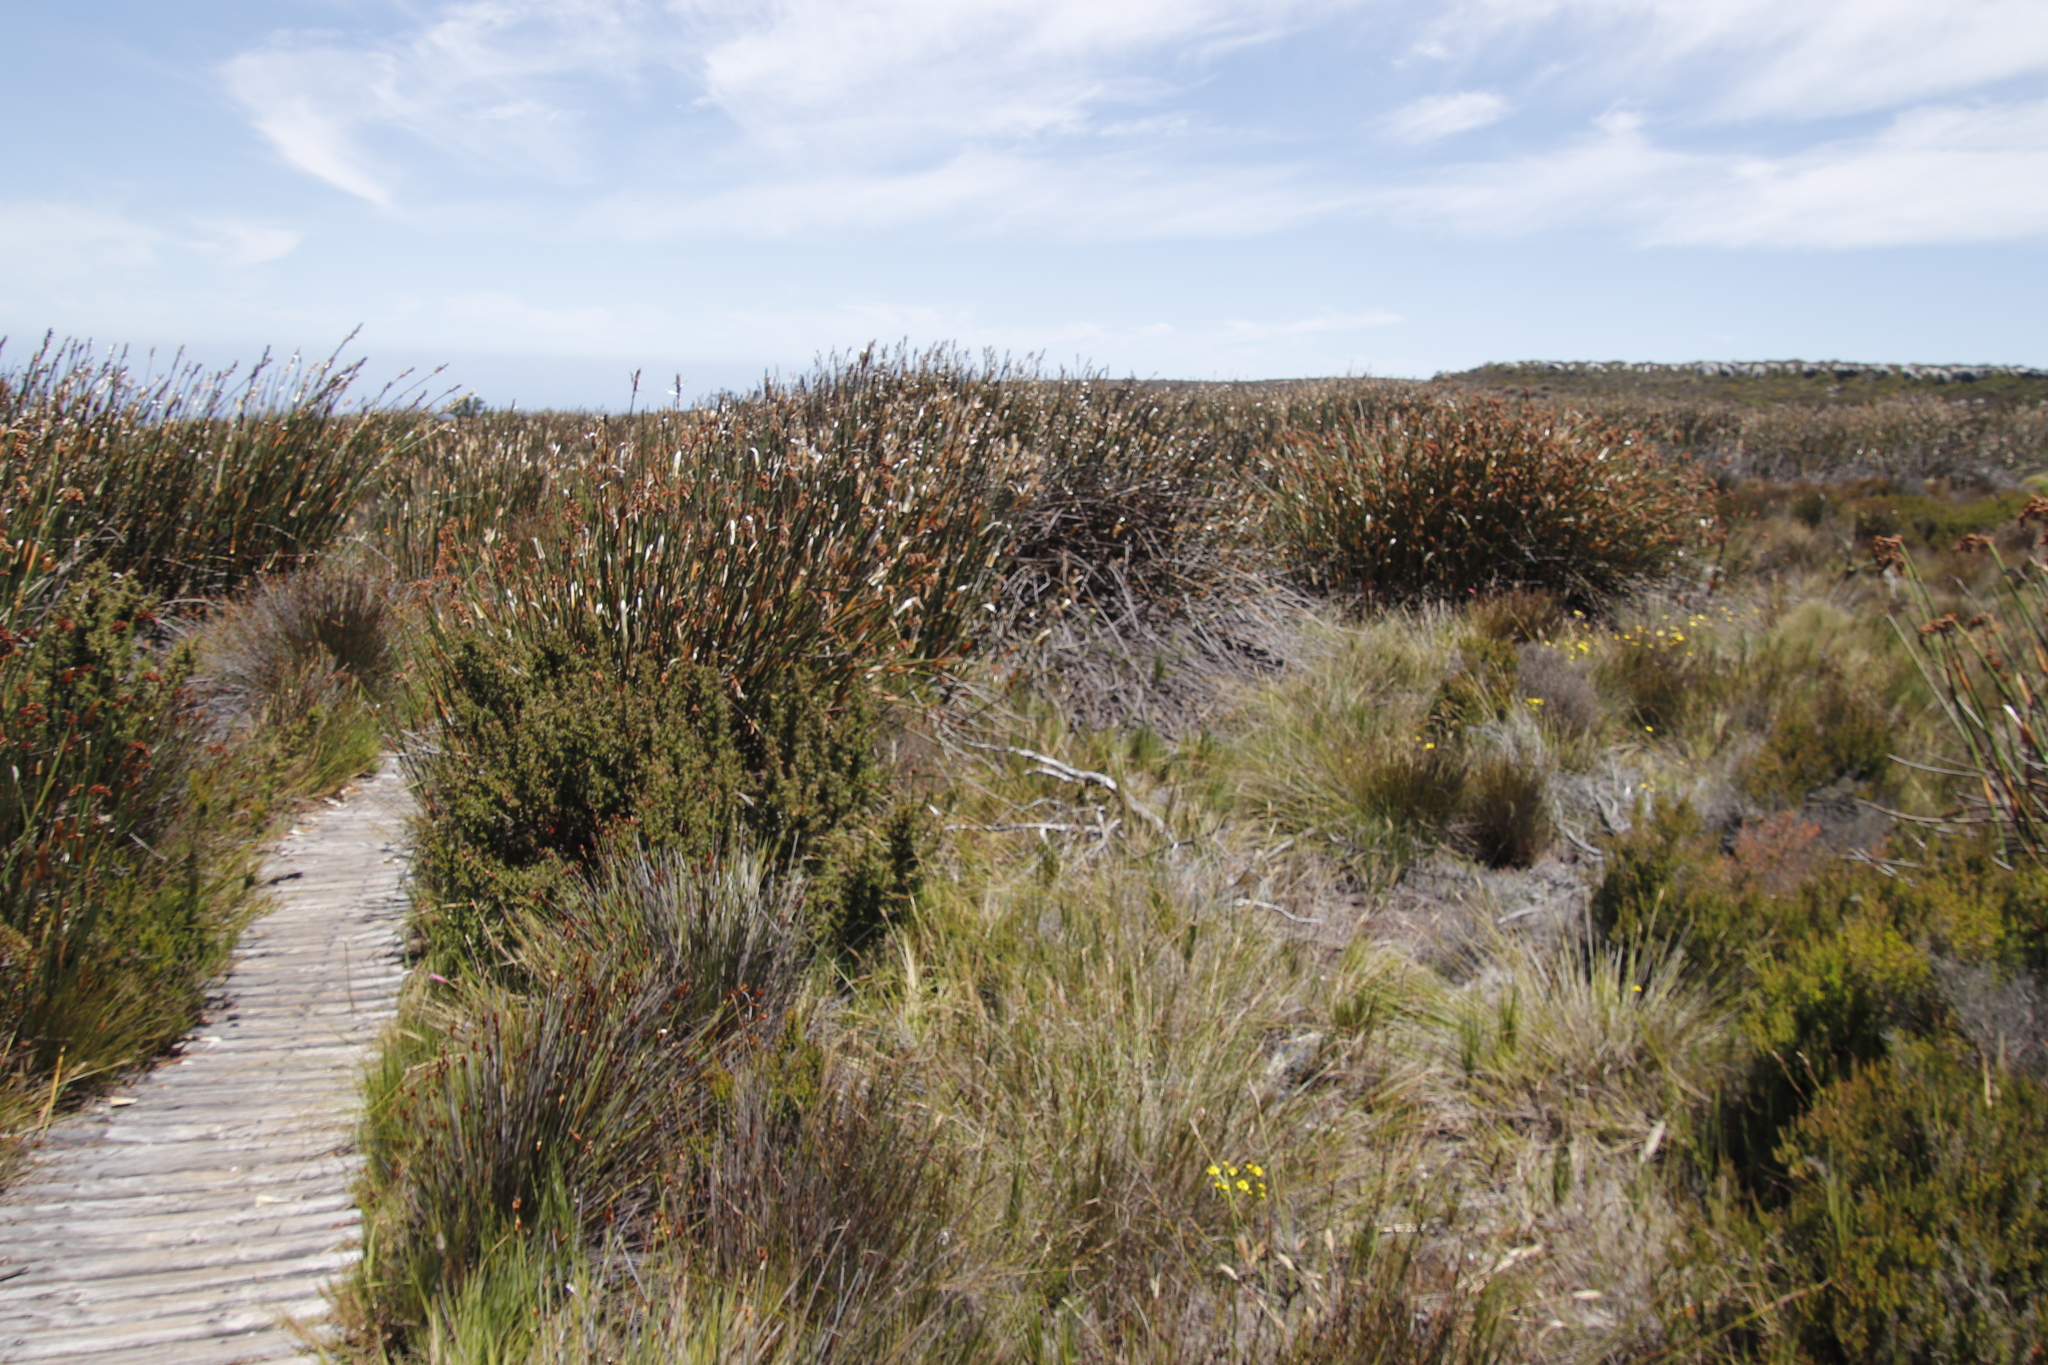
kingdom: Plantae
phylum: Tracheophyta
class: Liliopsida
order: Poales
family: Restionaceae
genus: Elegia
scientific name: Elegia mucronata
